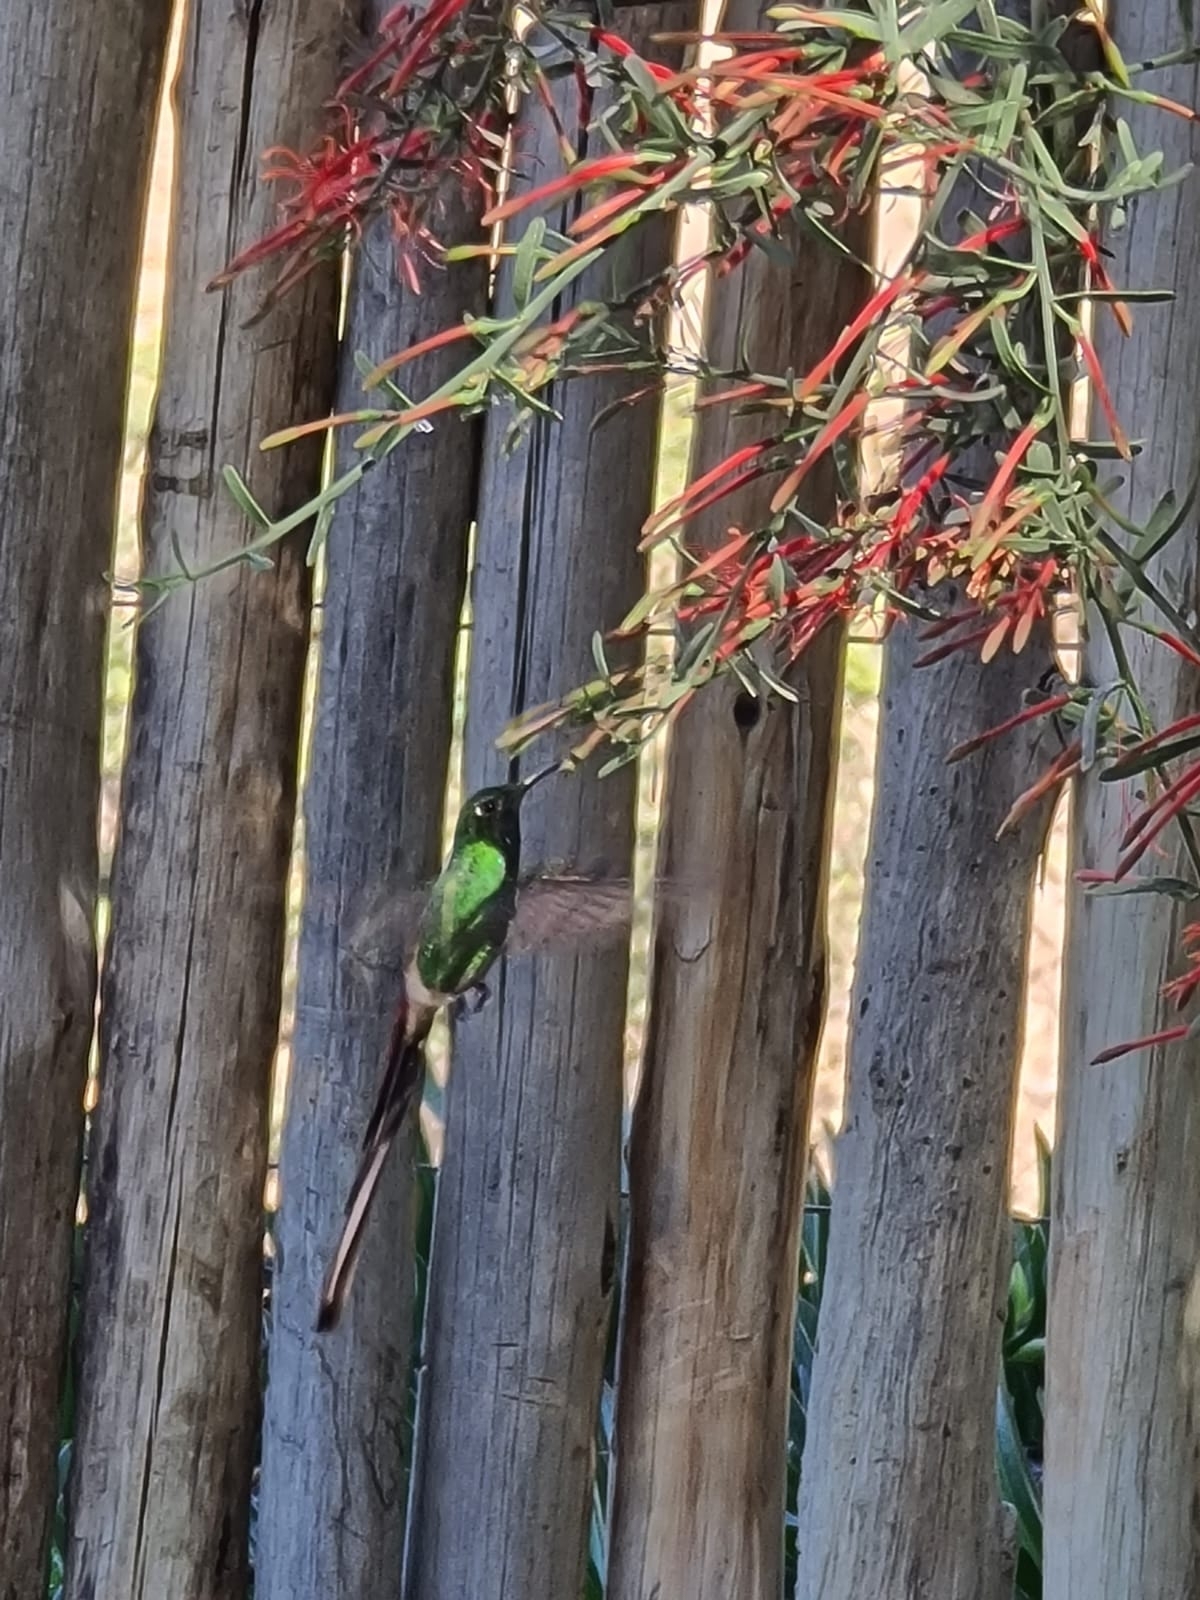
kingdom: Animalia
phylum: Chordata
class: Aves
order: Apodiformes
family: Trochilidae
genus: Sappho
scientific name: Sappho sparganurus
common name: Red-tailed comet
